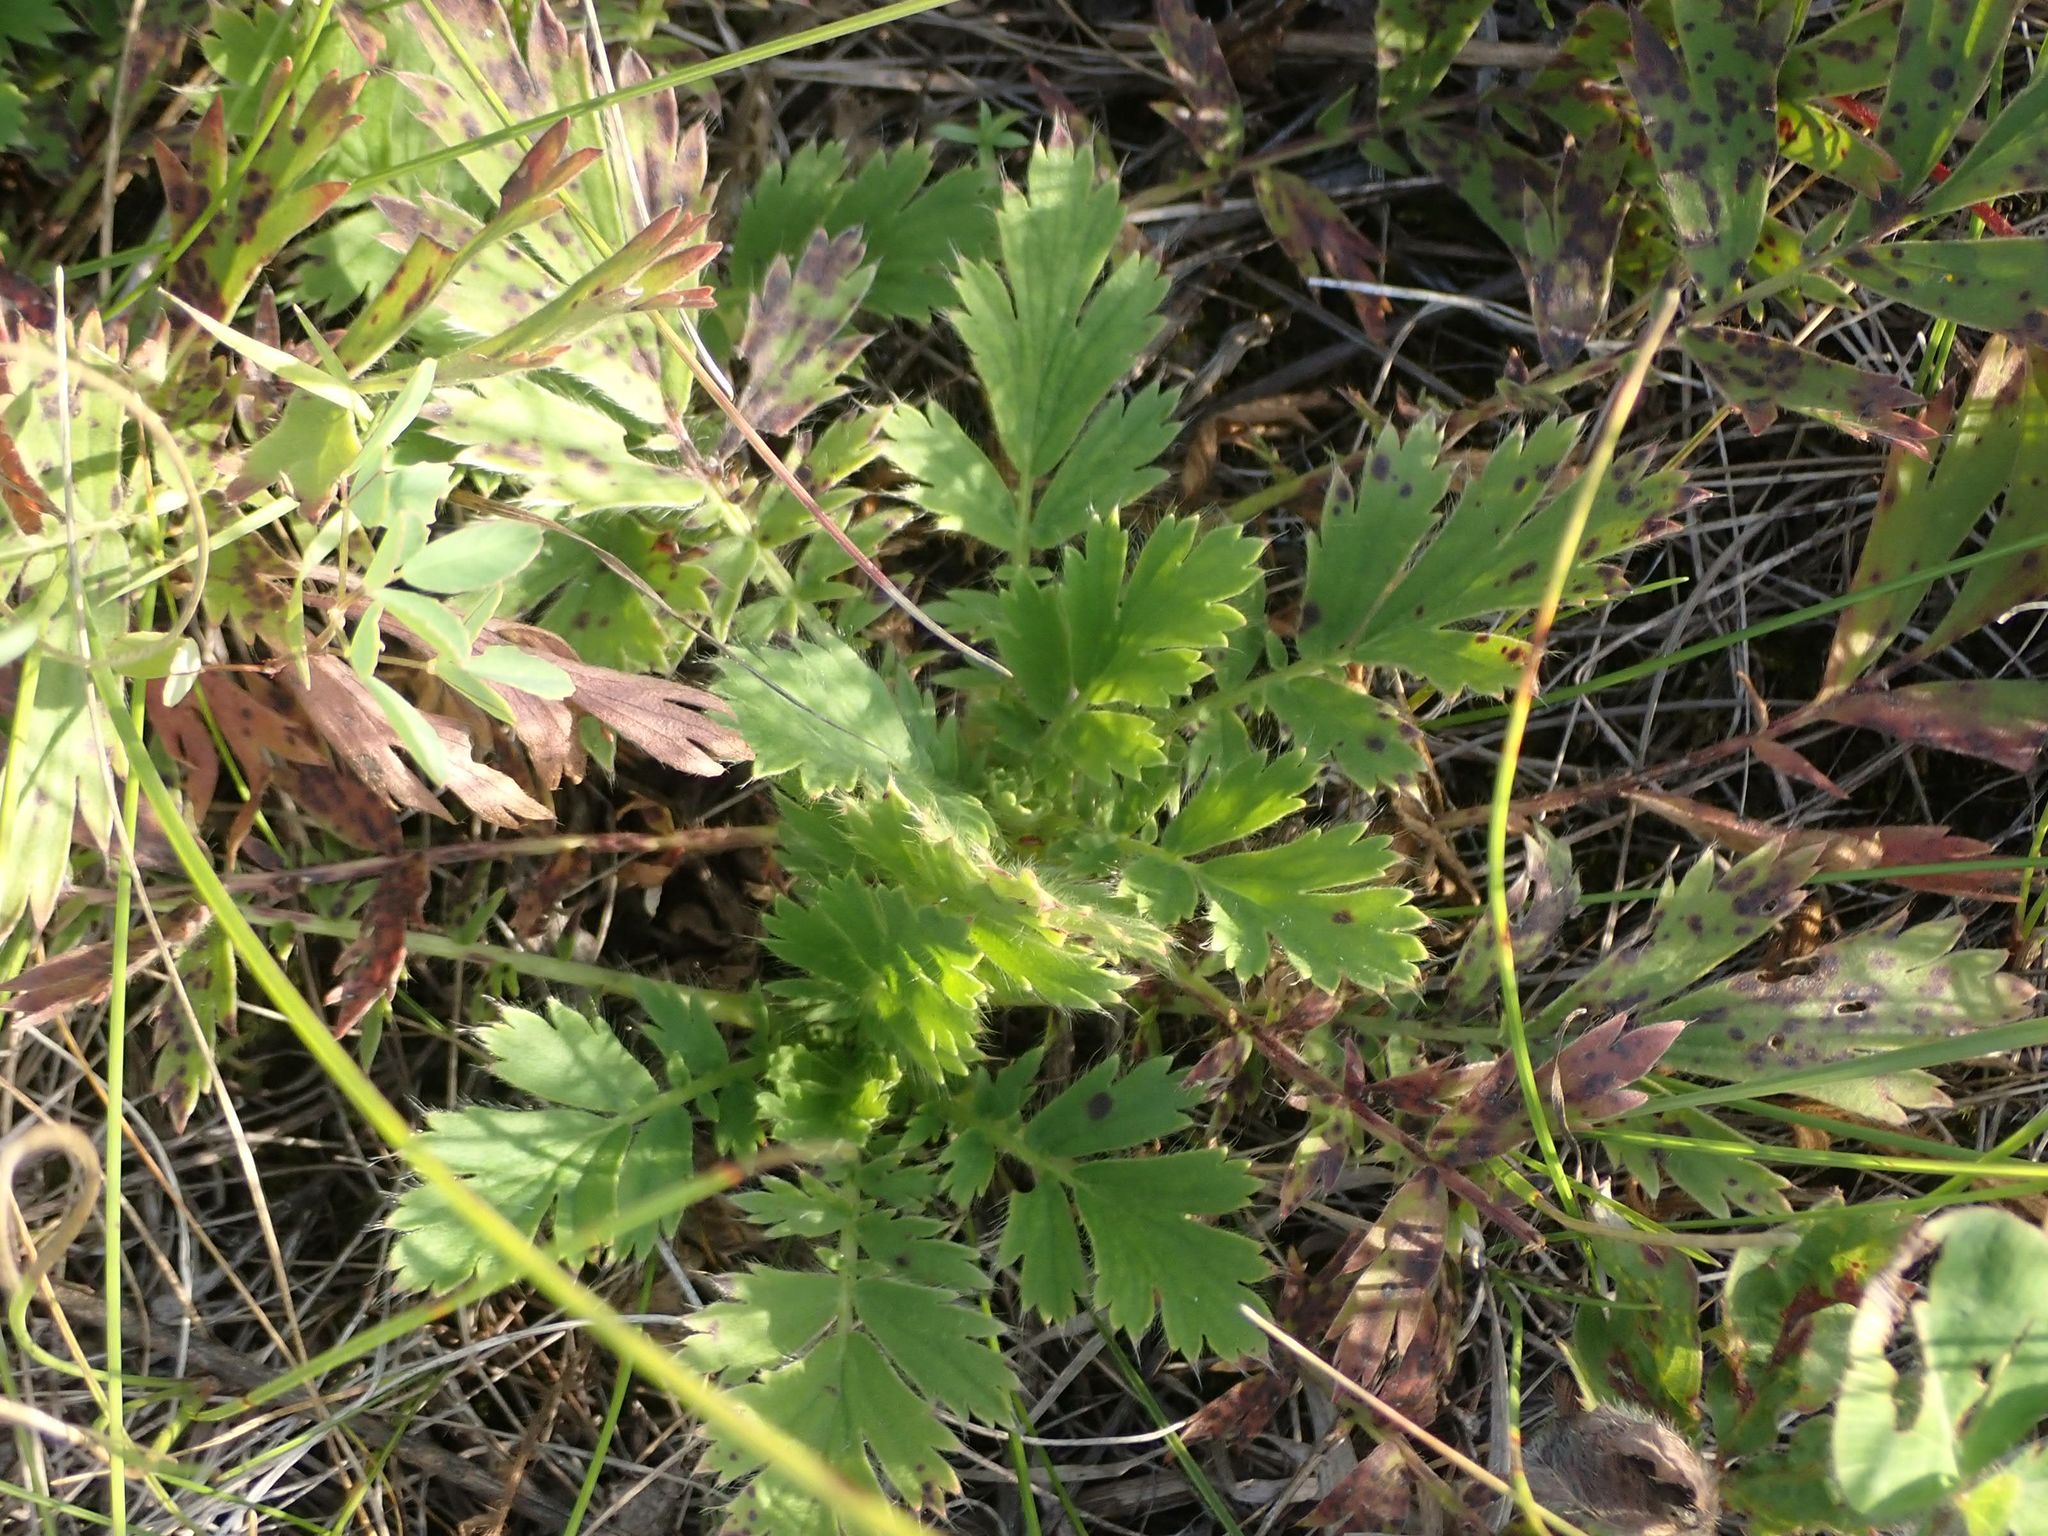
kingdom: Plantae
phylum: Tracheophyta
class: Magnoliopsida
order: Rosales
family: Rosaceae
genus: Geum
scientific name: Geum triflorum
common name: Old man's whiskers
